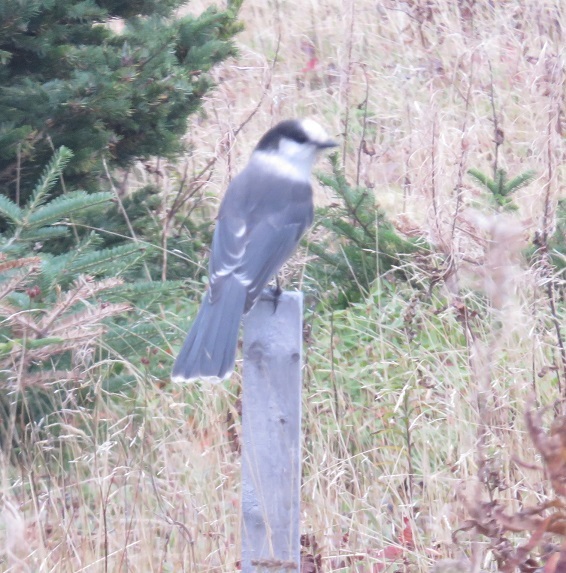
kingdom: Animalia
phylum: Chordata
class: Aves
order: Passeriformes
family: Corvidae
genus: Perisoreus
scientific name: Perisoreus canadensis
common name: Gray jay
